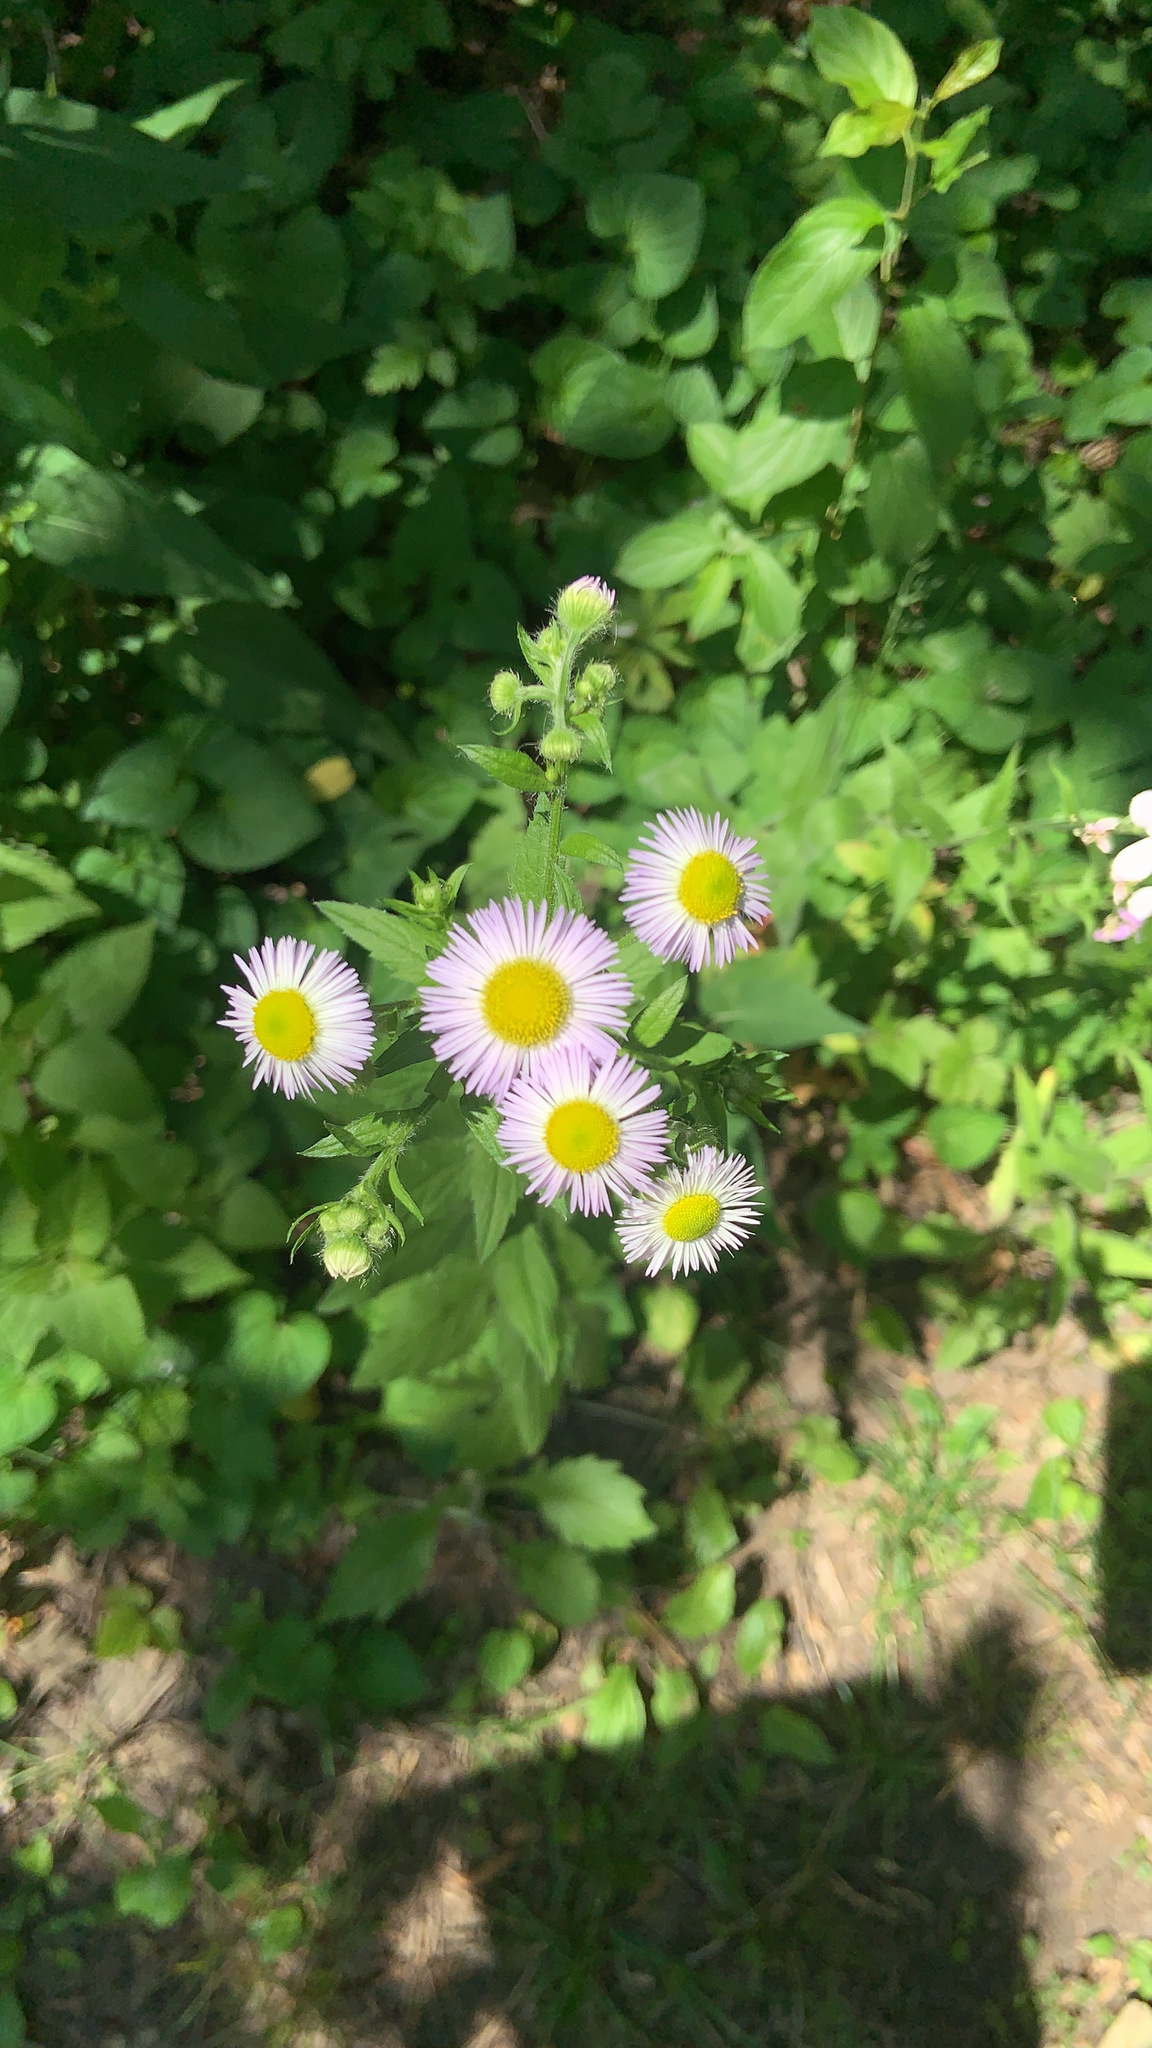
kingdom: Plantae
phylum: Tracheophyta
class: Magnoliopsida
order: Asterales
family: Asteraceae
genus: Erigeron
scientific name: Erigeron strigosus
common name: Common eastern fleabane
